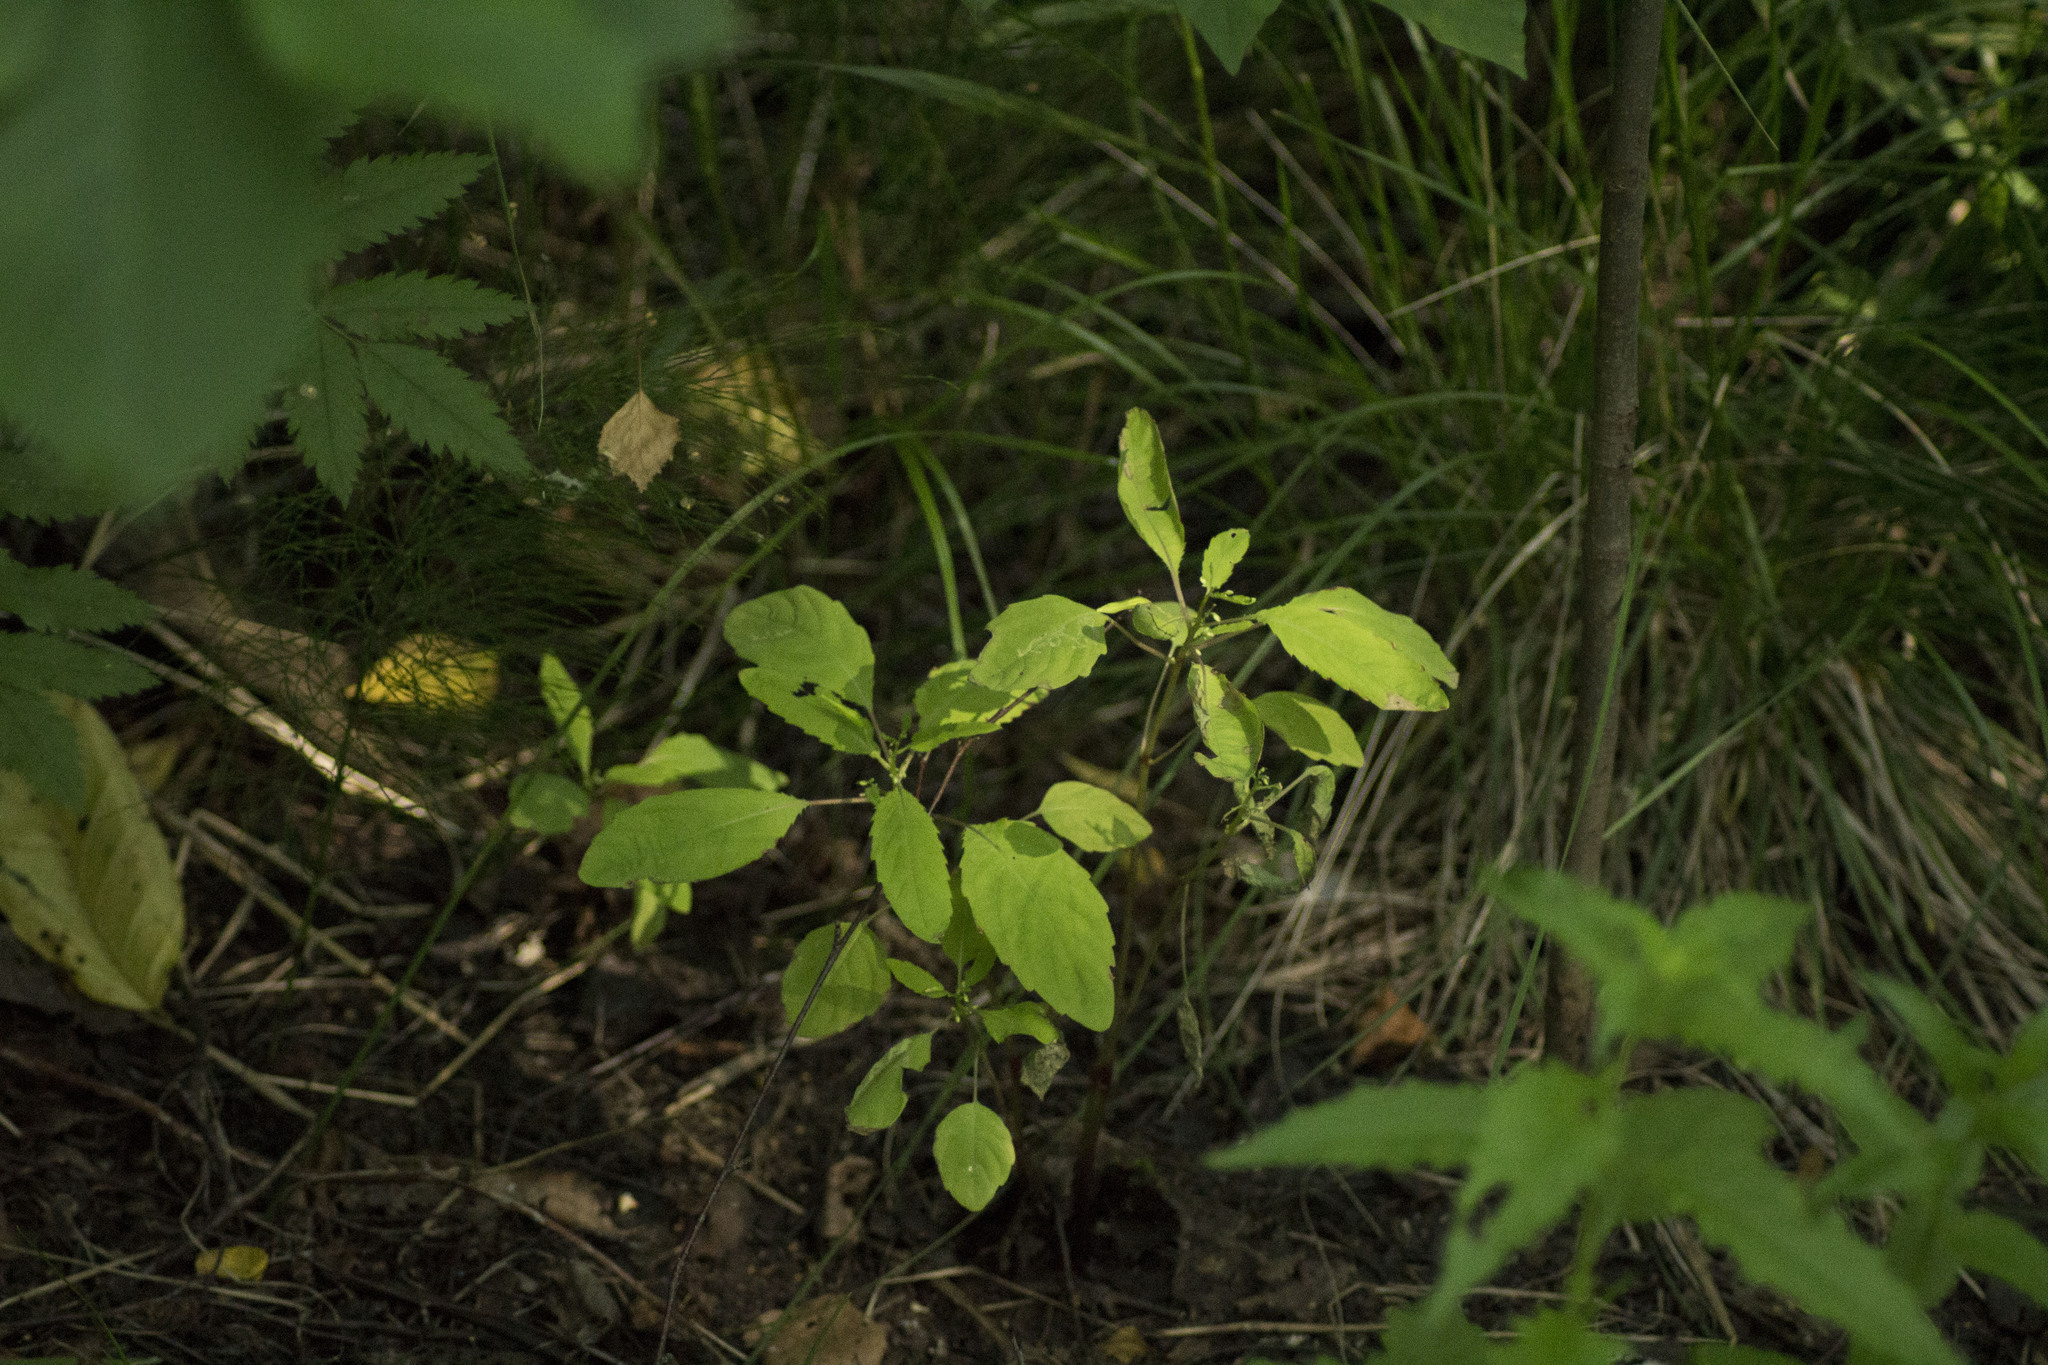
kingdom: Plantae
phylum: Tracheophyta
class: Magnoliopsida
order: Ericales
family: Balsaminaceae
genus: Impatiens
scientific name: Impatiens noli-tangere
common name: Touch-me-not balsam
